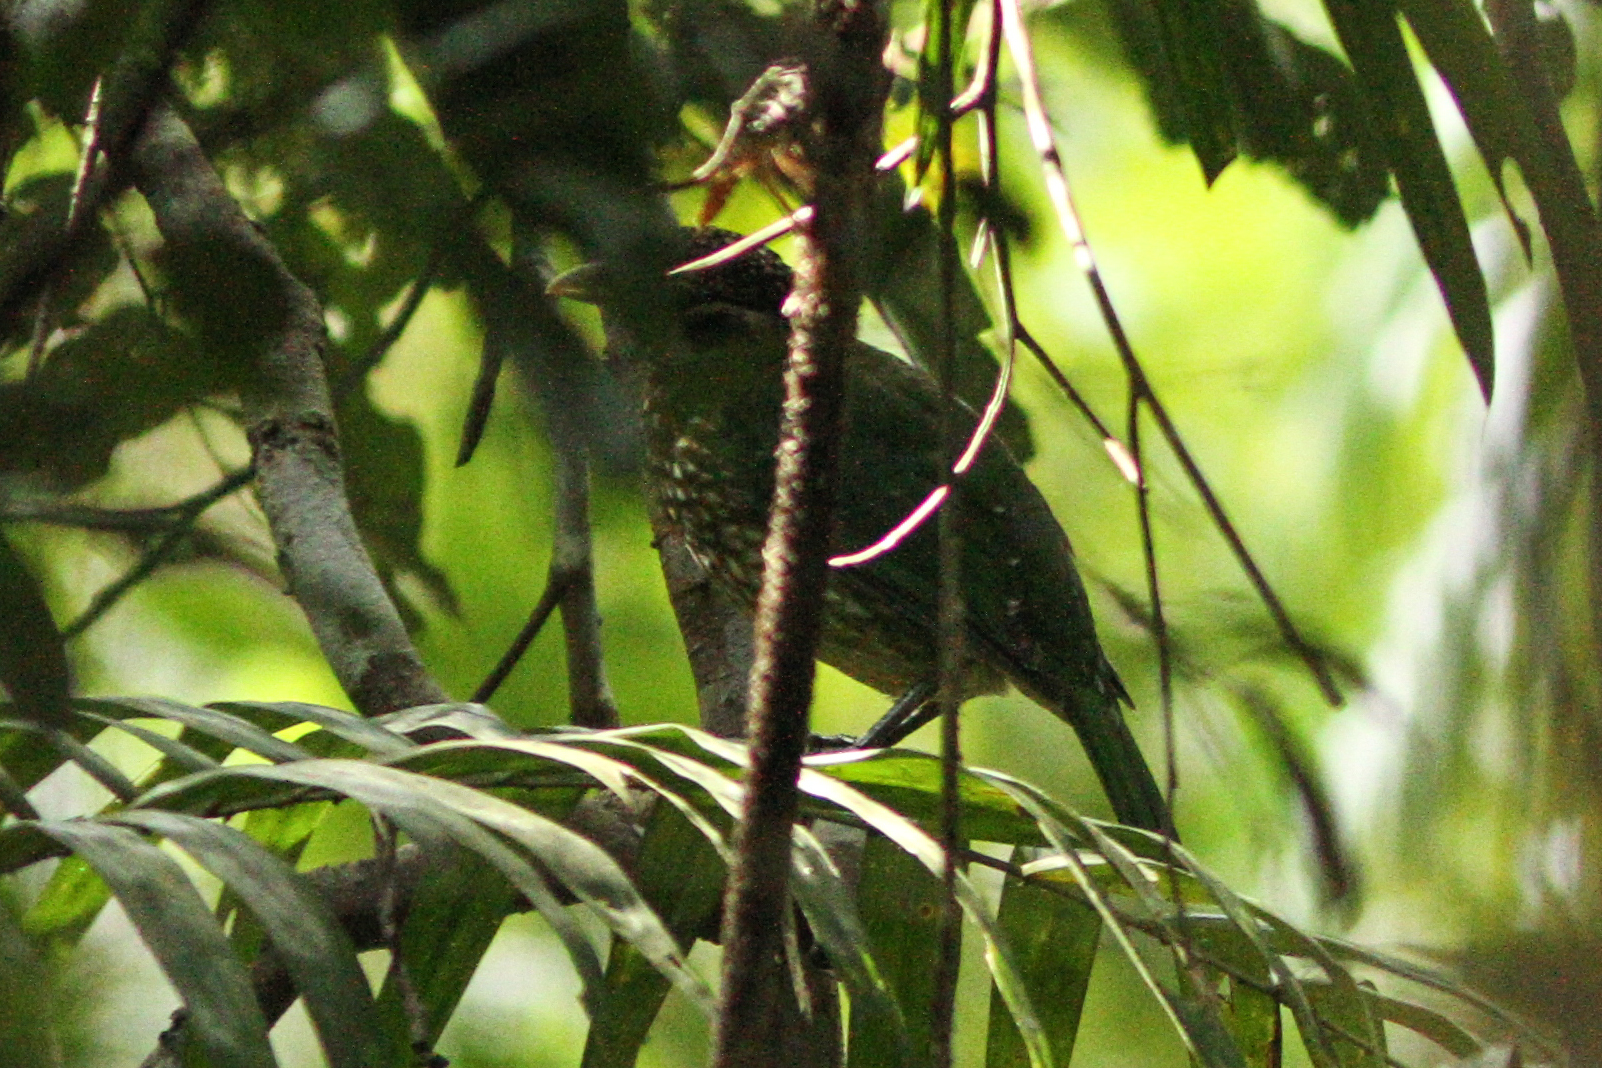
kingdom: Animalia
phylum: Chordata
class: Aves
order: Passeriformes
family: Ptilonorhynchidae
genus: Ailuroedus
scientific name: Ailuroedus maculosus
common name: Spotted catbird
